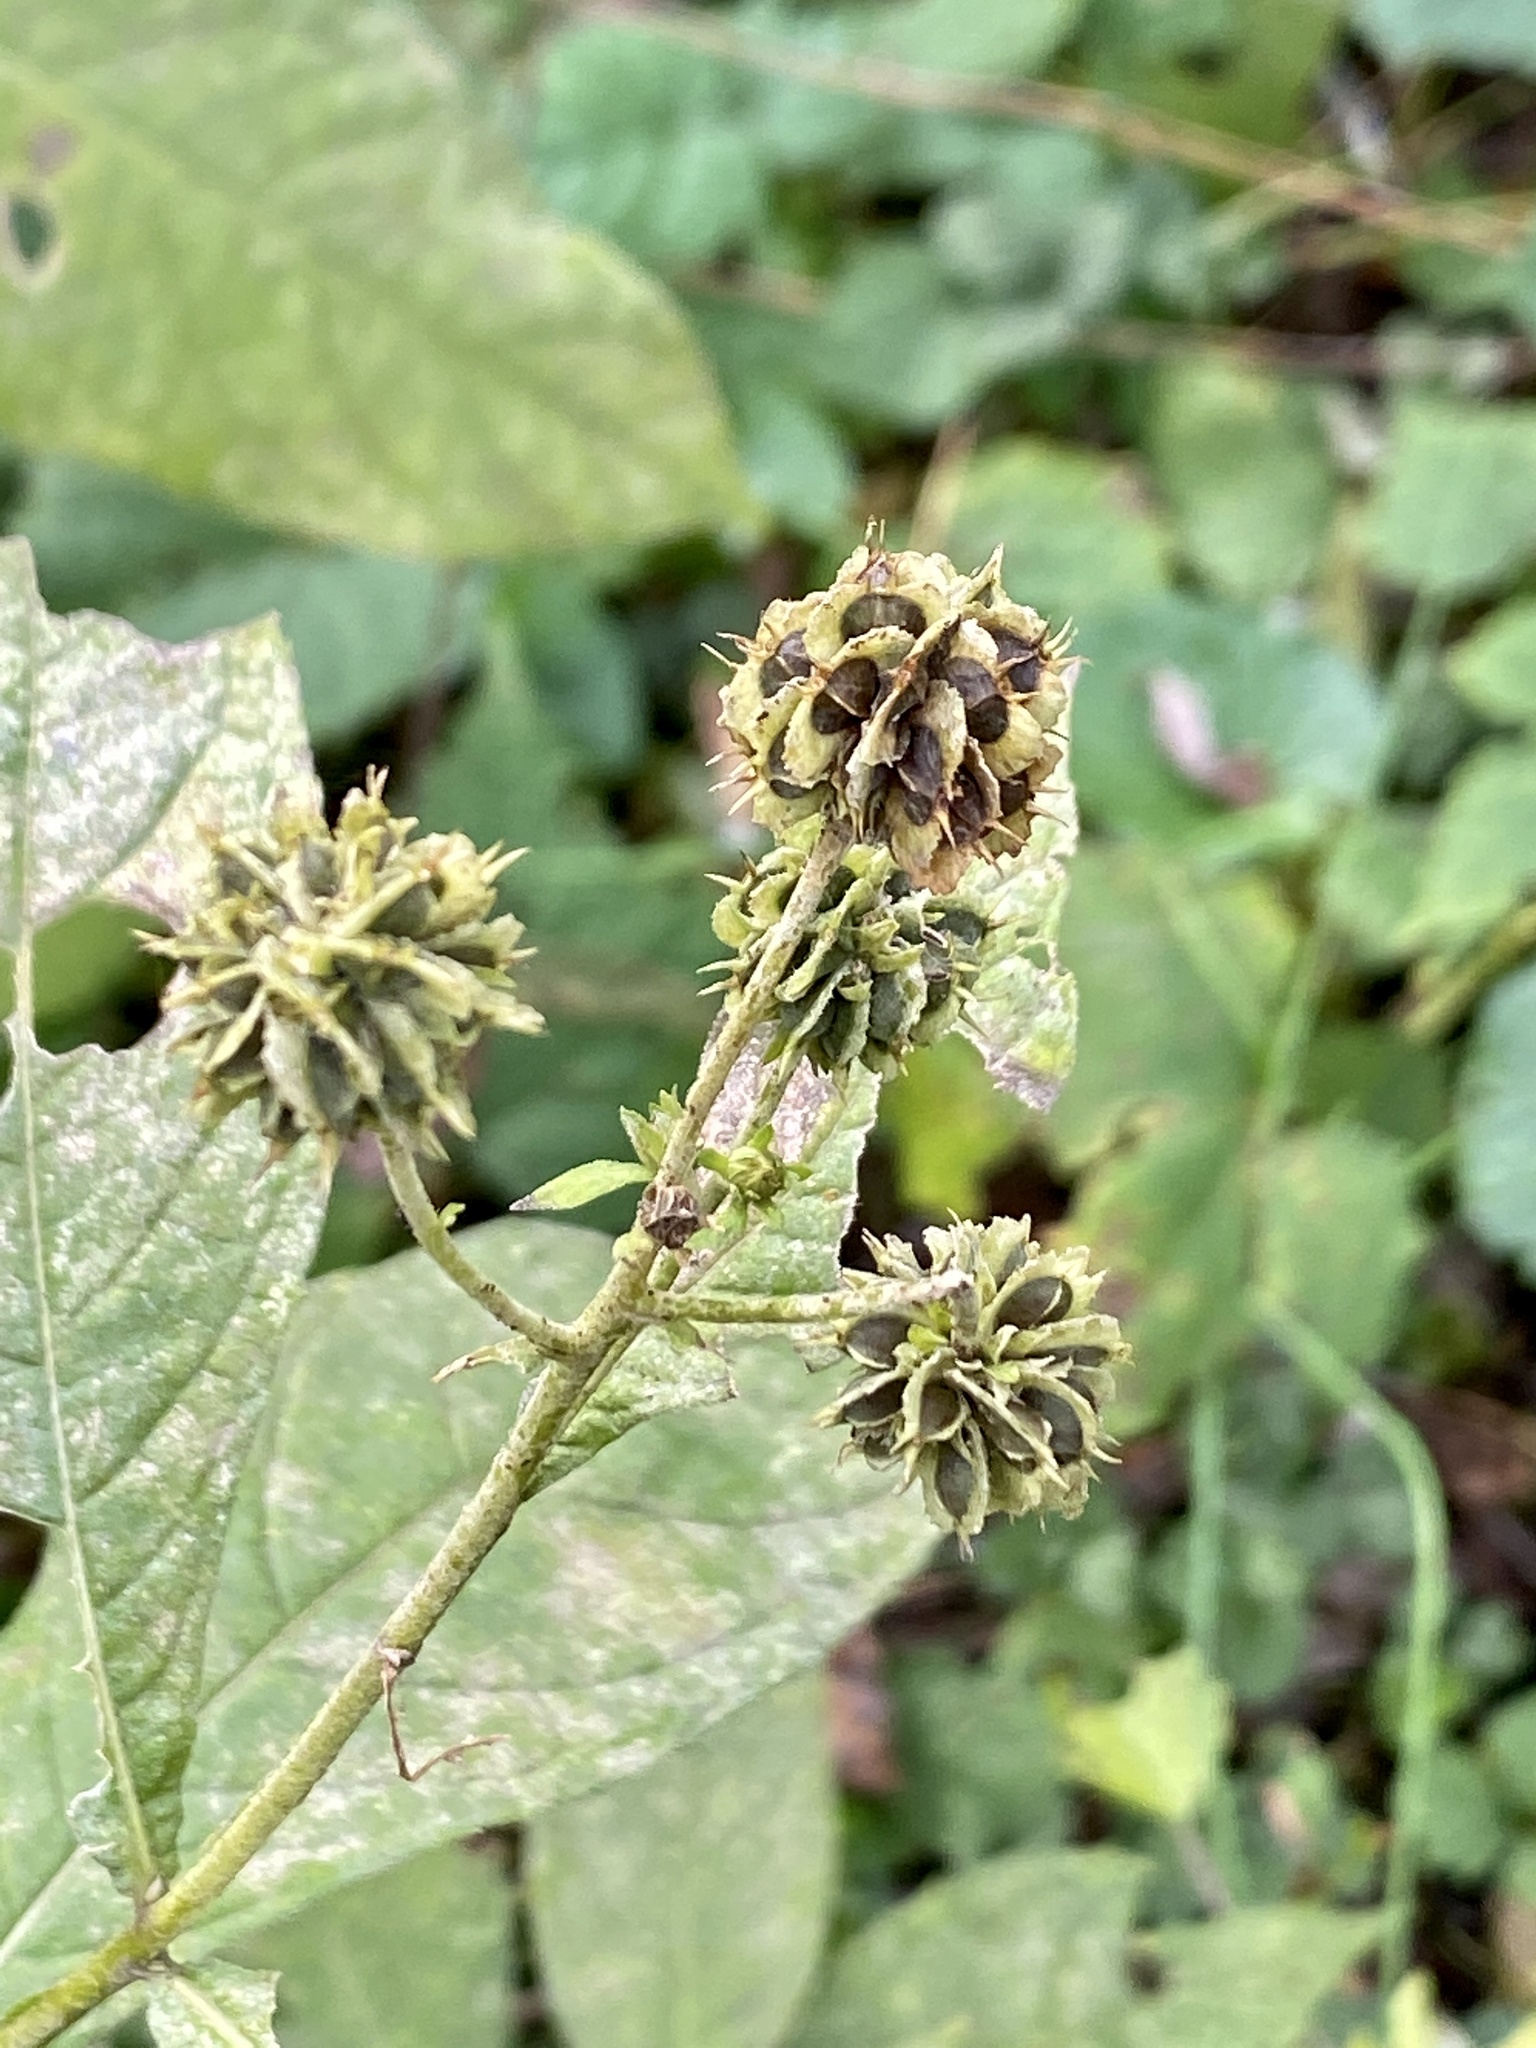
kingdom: Plantae
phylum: Tracheophyta
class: Magnoliopsida
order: Asterales
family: Asteraceae
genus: Verbesina
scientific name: Verbesina alternifolia
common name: Wingstem
